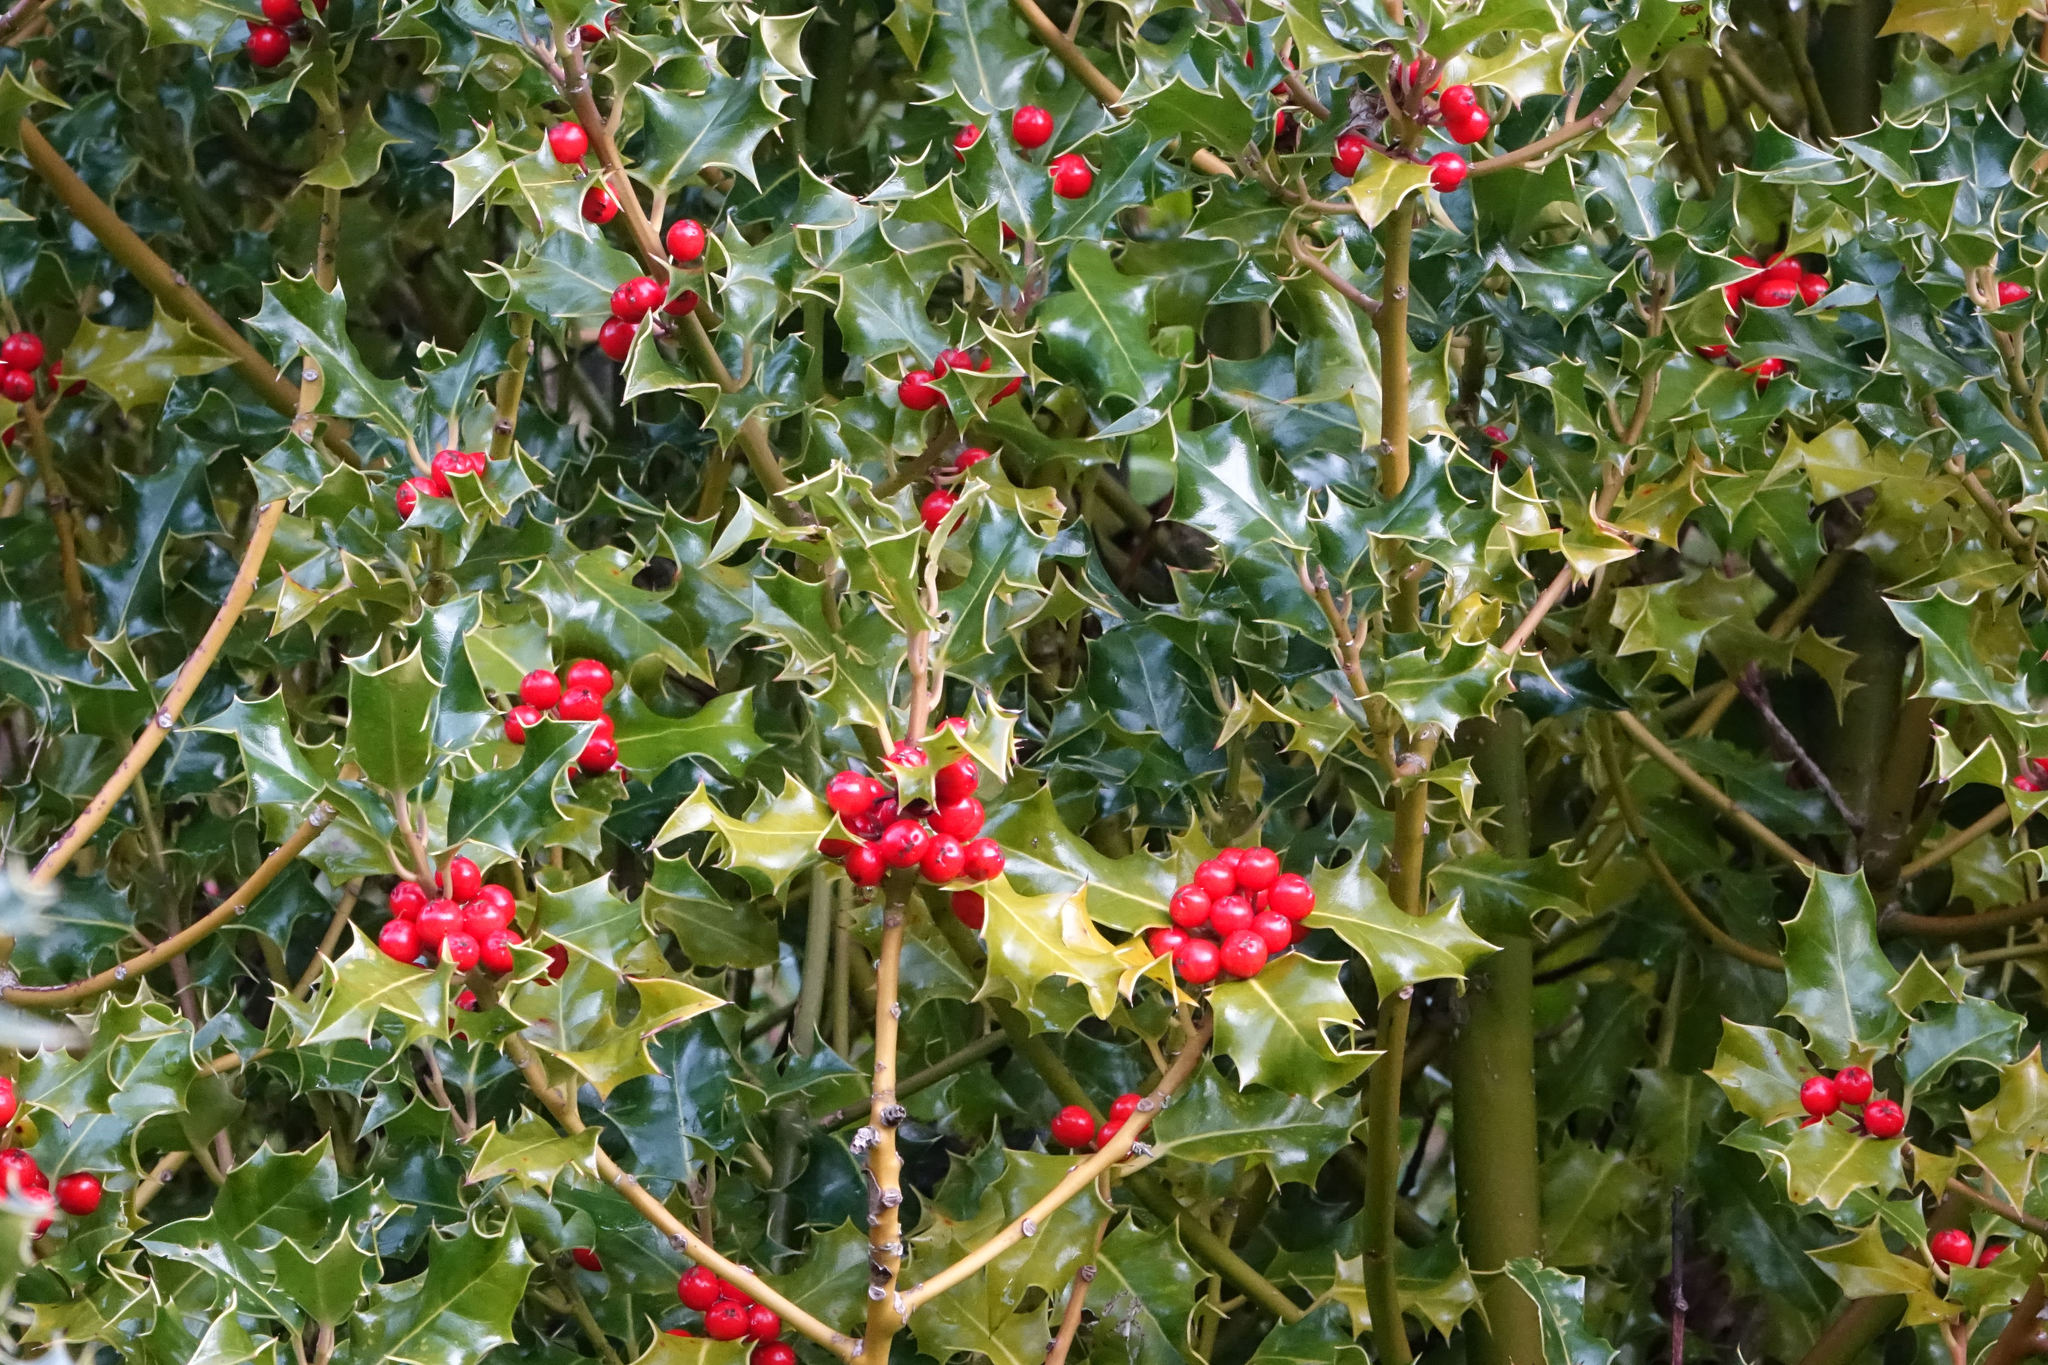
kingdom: Plantae
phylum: Tracheophyta
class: Magnoliopsida
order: Aquifoliales
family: Aquifoliaceae
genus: Ilex
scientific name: Ilex aquifolium
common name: English holly
